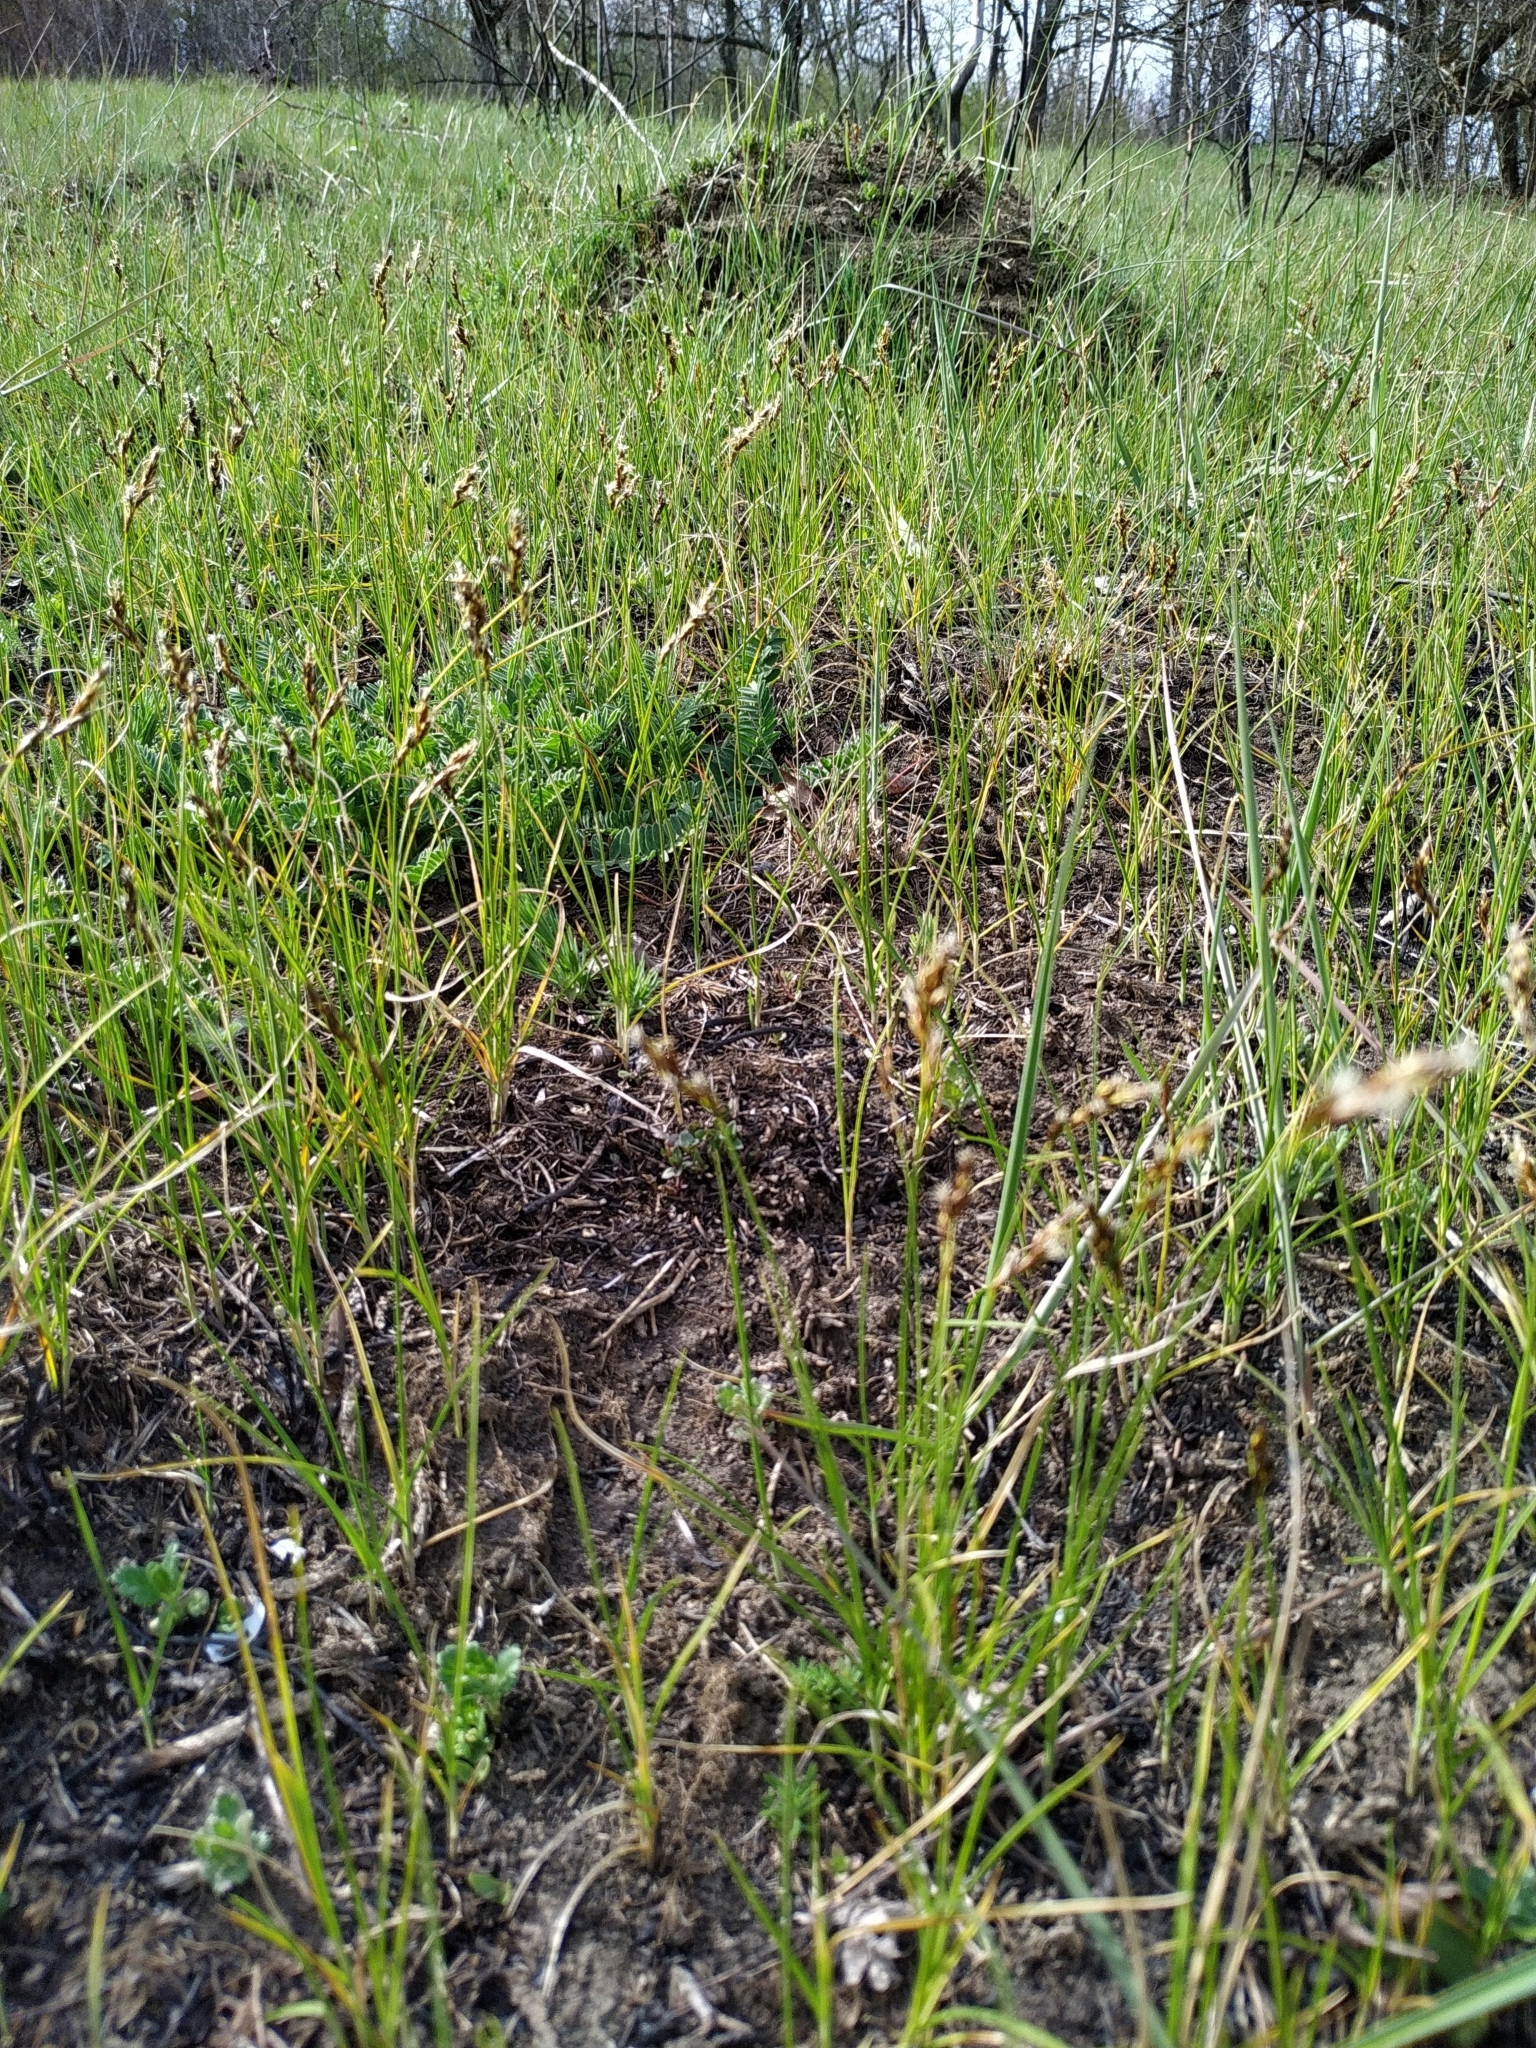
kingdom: Plantae
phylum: Tracheophyta
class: Liliopsida
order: Poales
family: Cyperaceae
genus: Carex
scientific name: Carex praecox
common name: Early sedge
